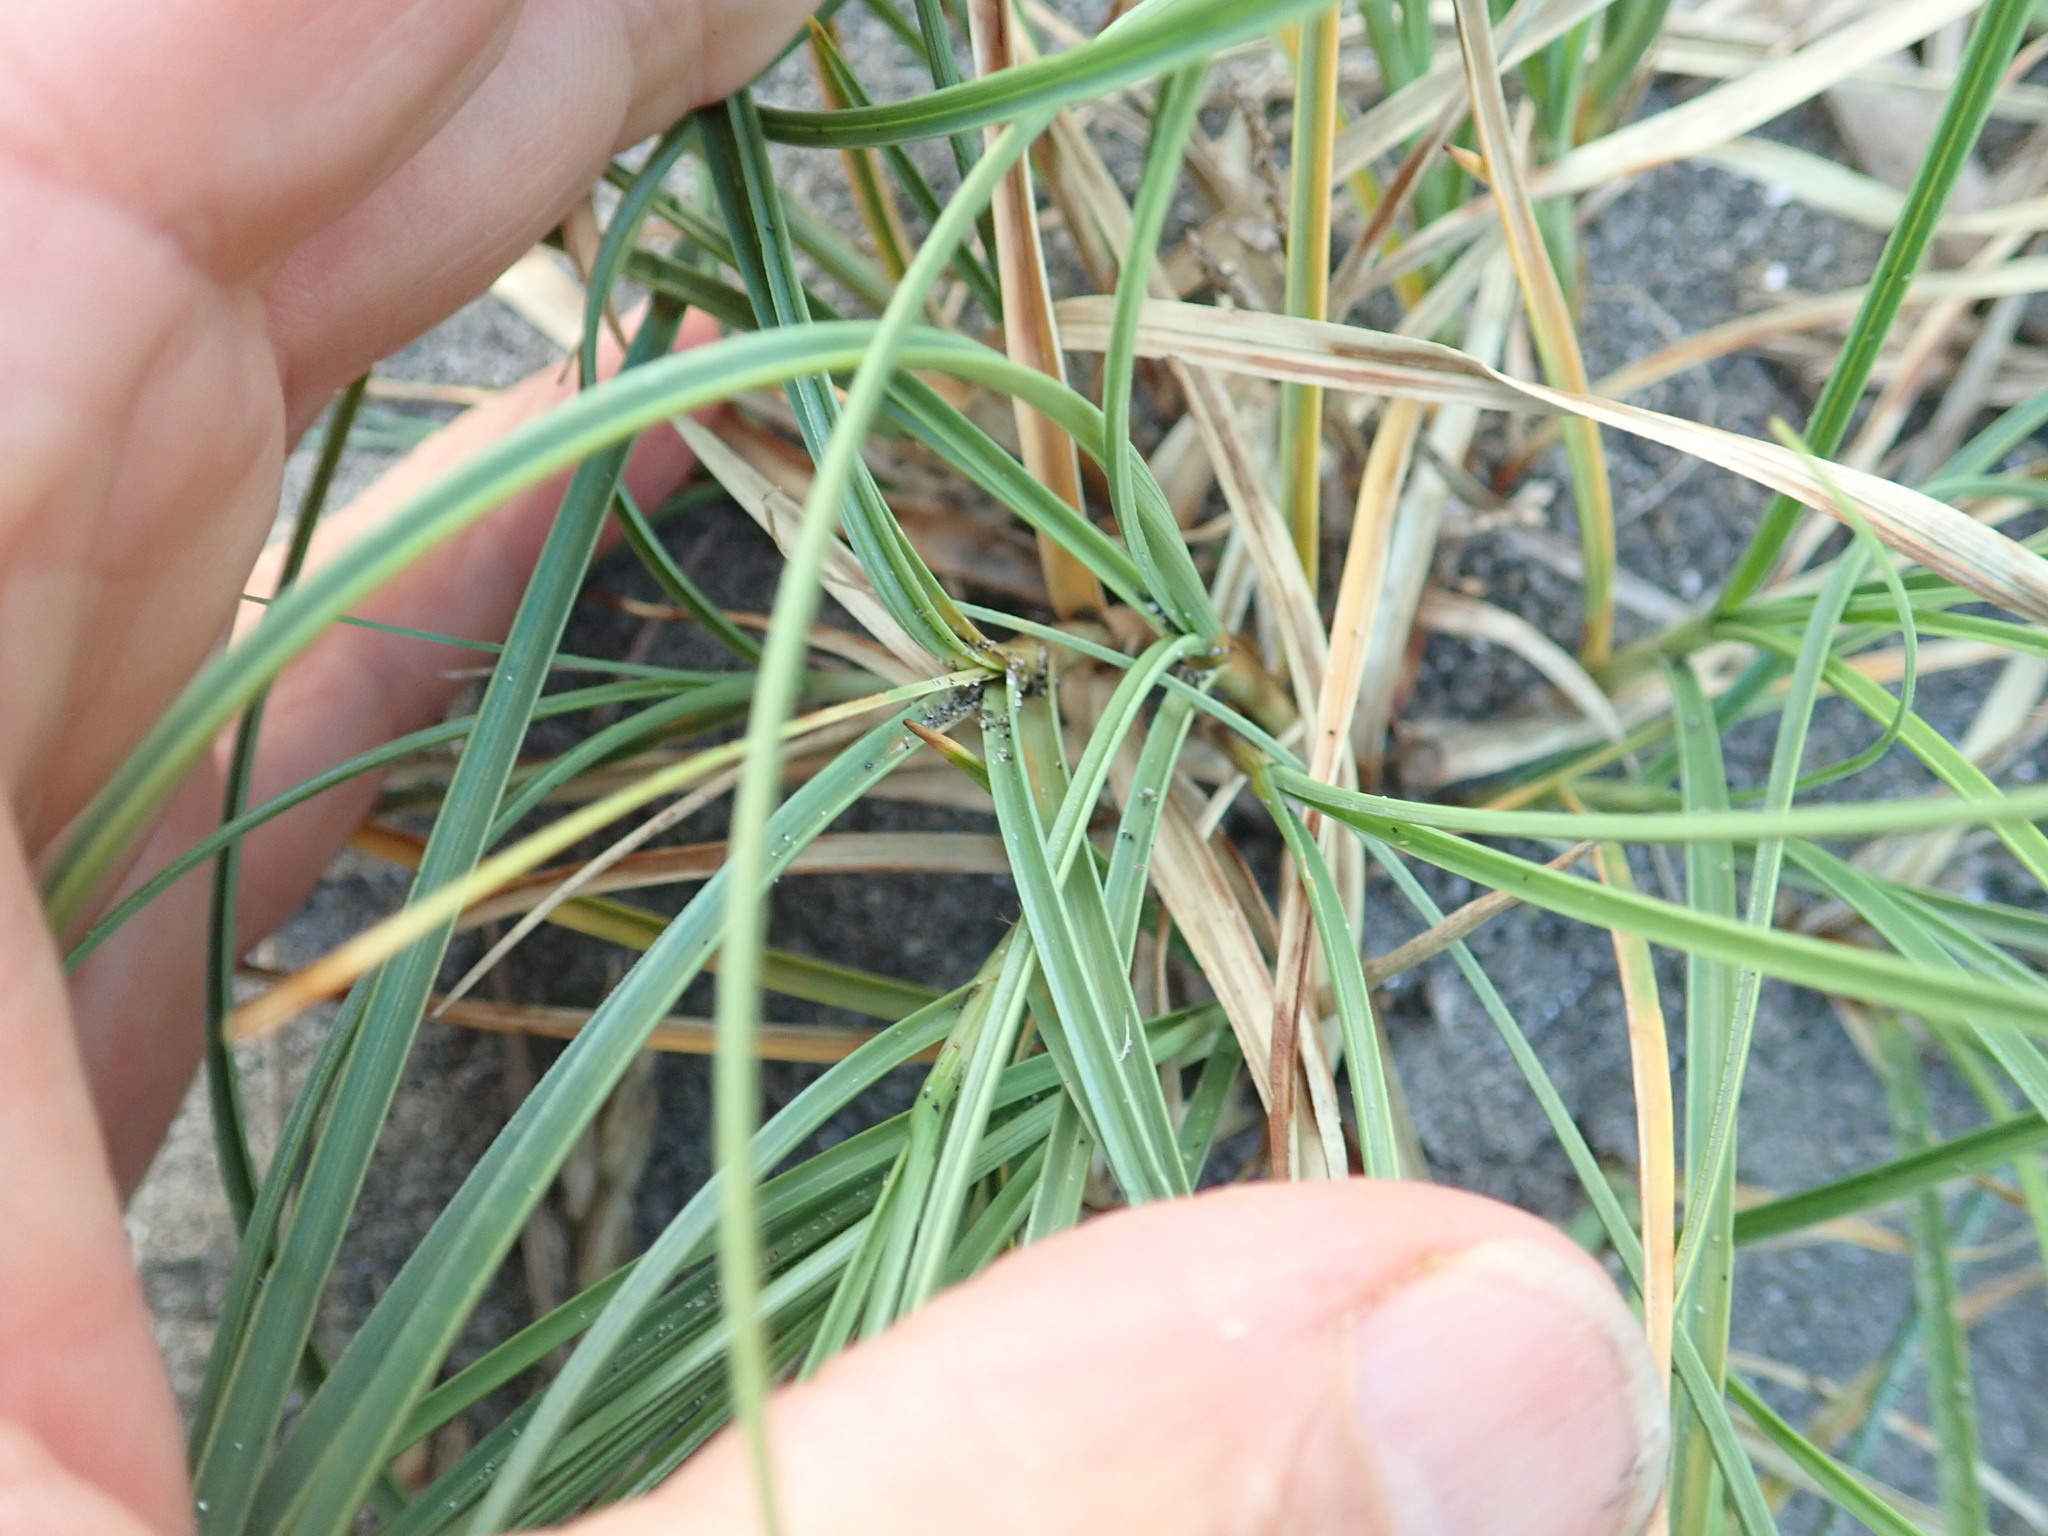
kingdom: Plantae
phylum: Tracheophyta
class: Liliopsida
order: Poales
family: Cyperaceae
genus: Carex
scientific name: Carex pumila
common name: Dwarf sedge
